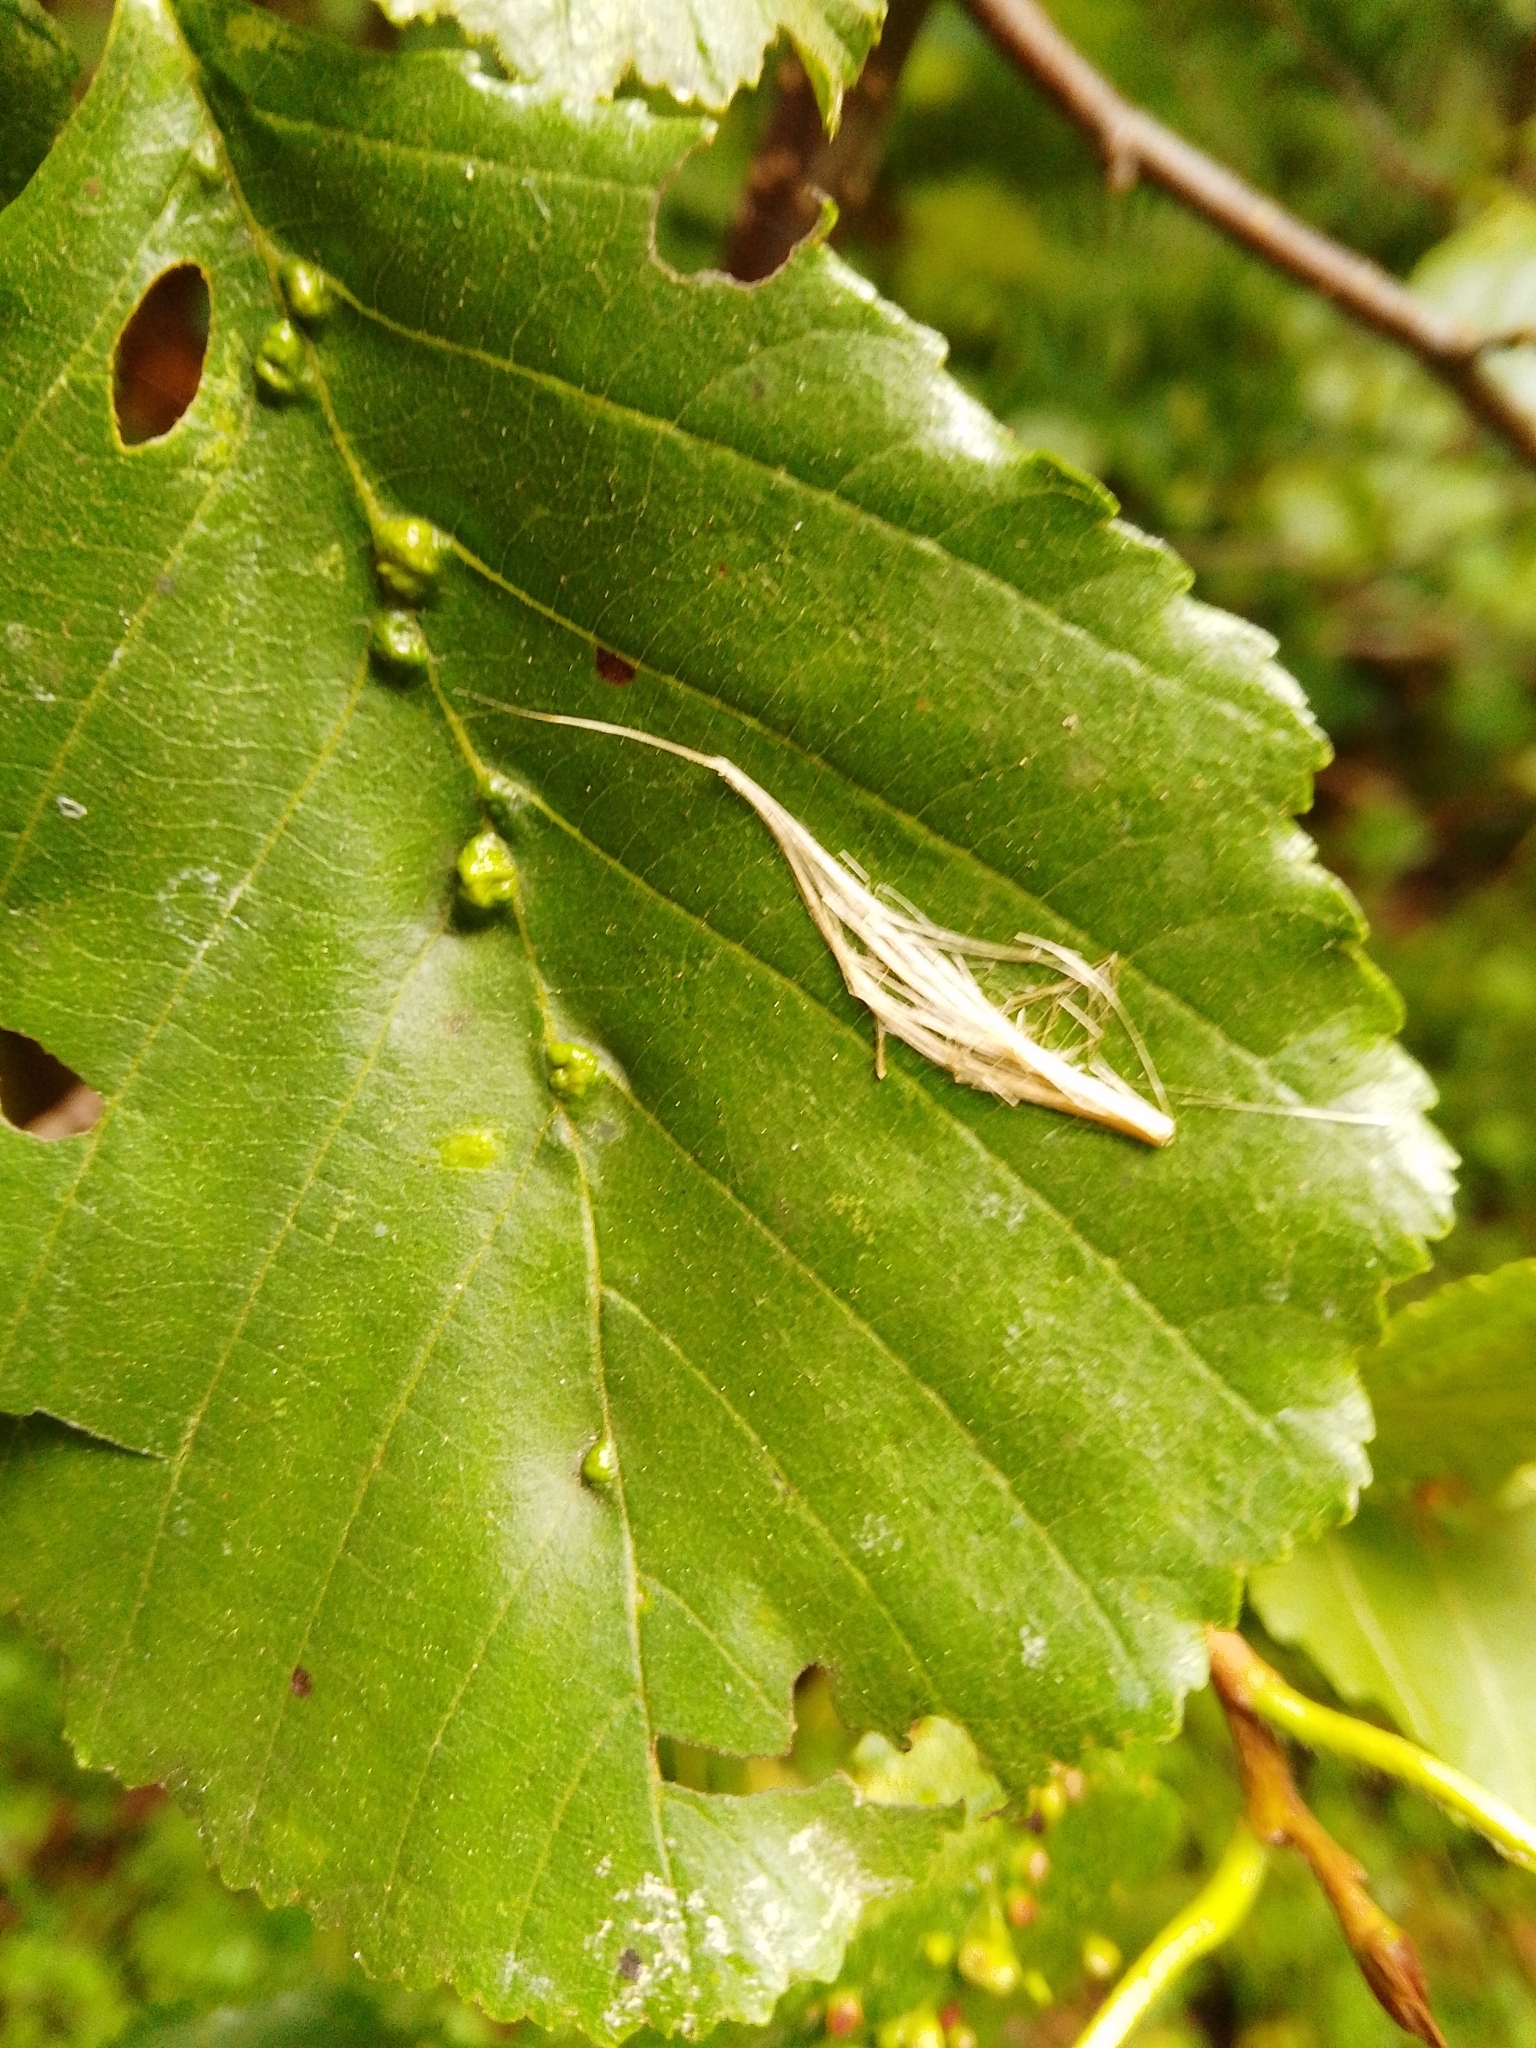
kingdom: Animalia
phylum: Arthropoda
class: Arachnida
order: Trombidiformes
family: Eriophyidae
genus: Eriophyes
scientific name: Eriophyes inangulis
